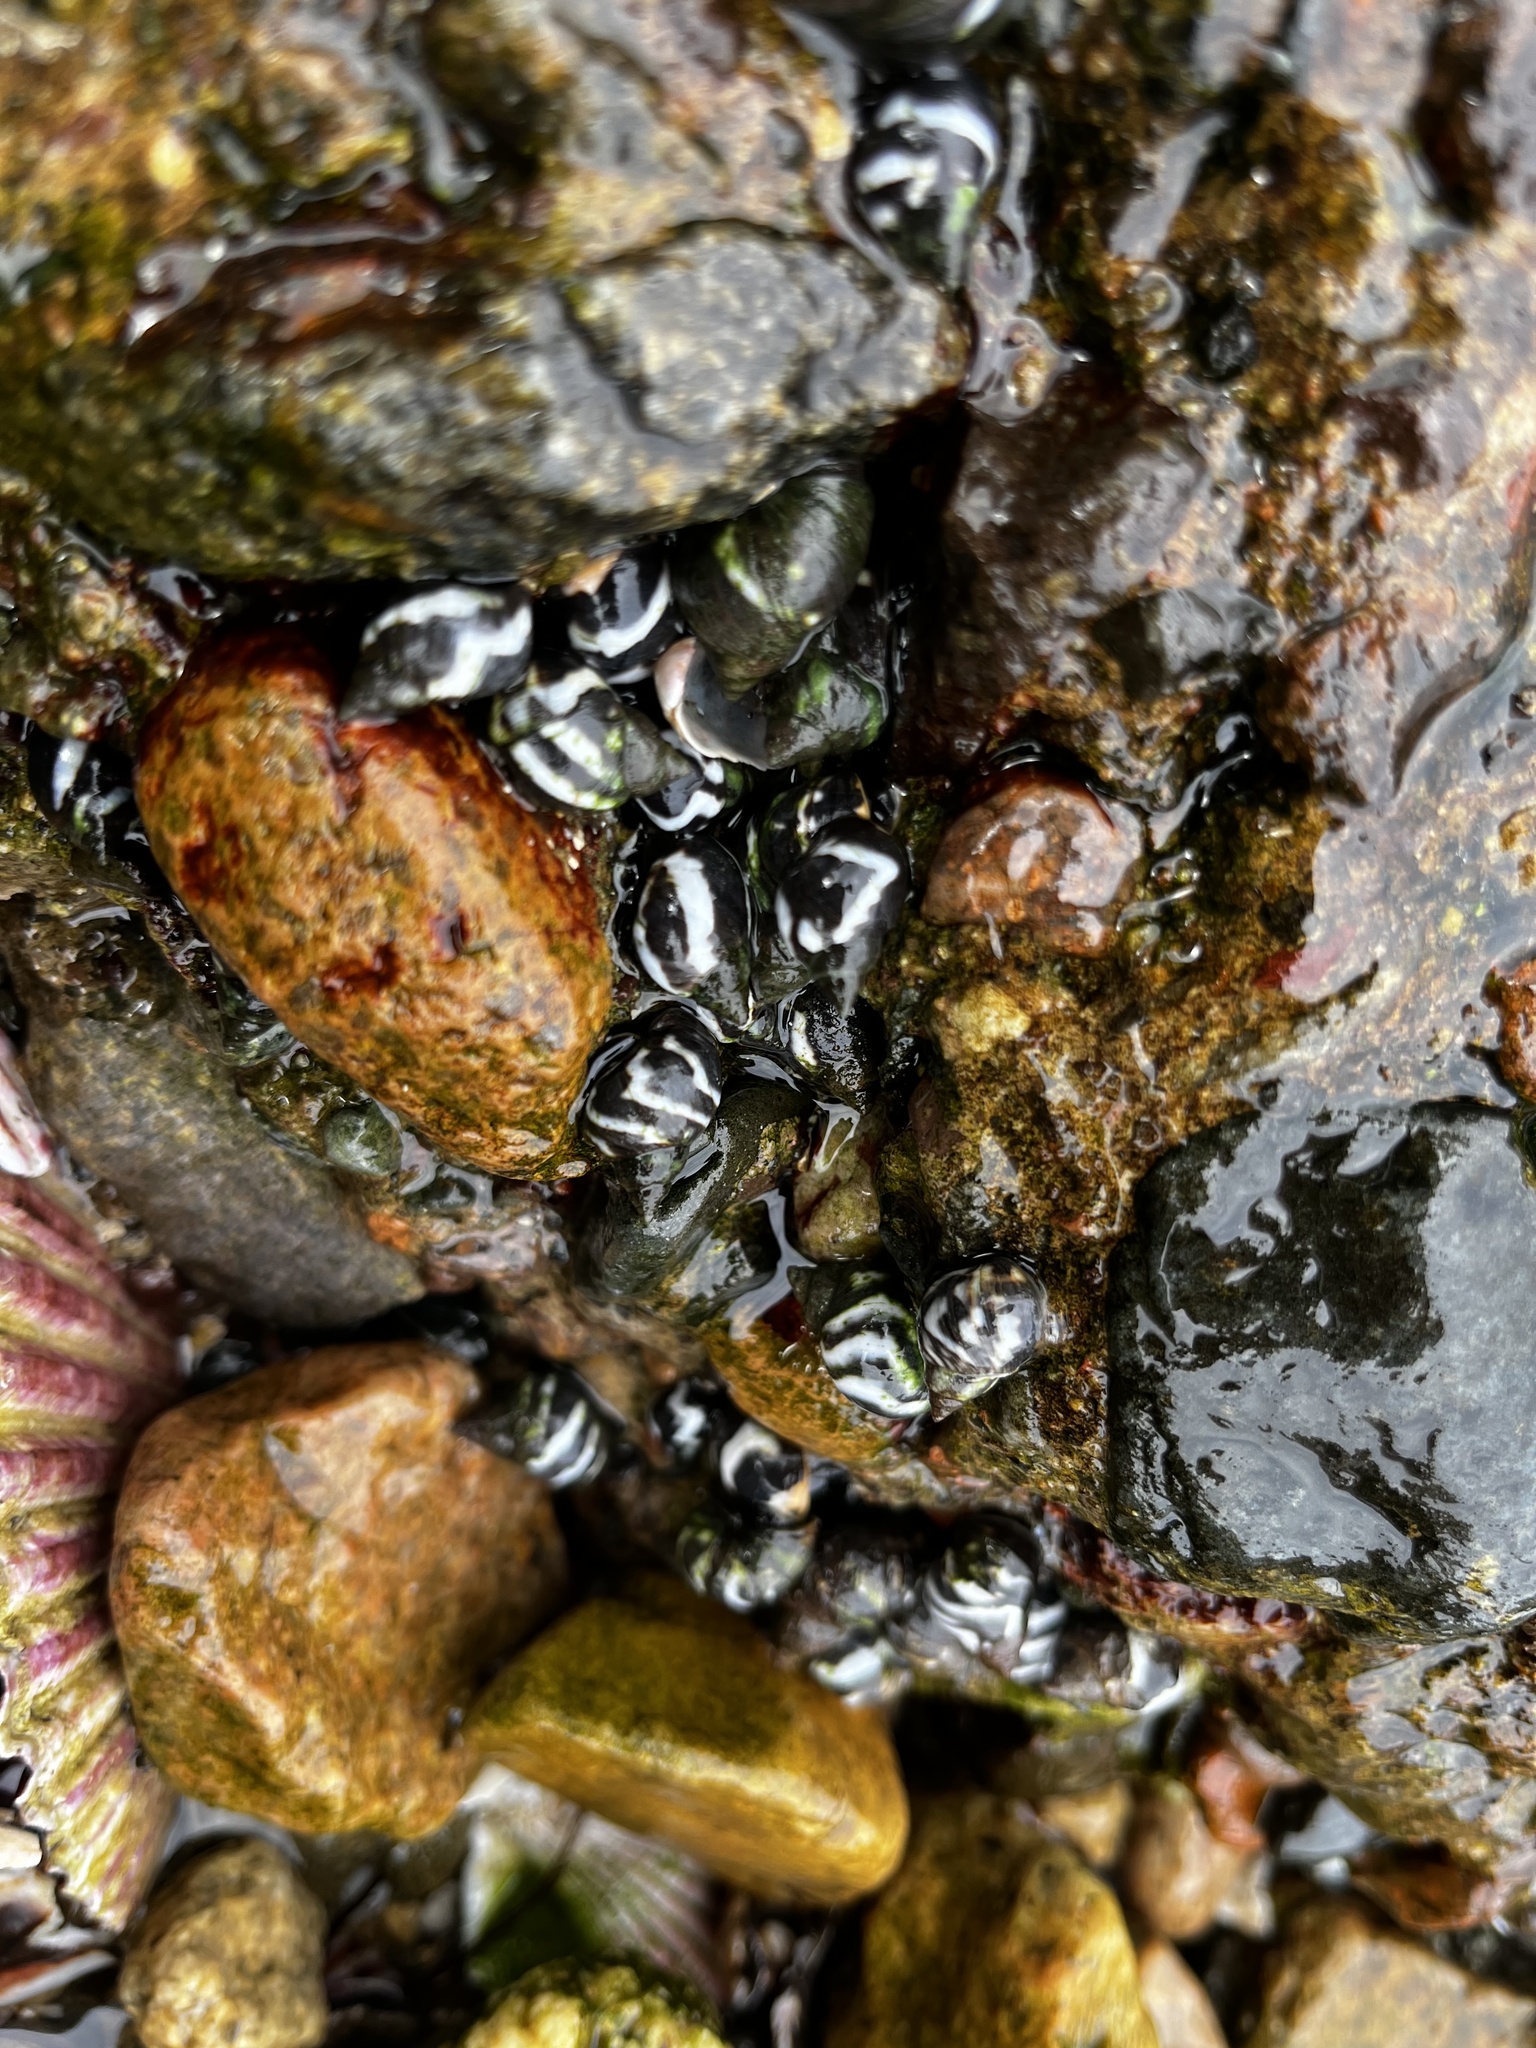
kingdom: Animalia
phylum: Mollusca
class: Gastropoda
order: Littorinimorpha
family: Littorinidae
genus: Echinolittorina
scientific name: Echinolittorina peruviana
